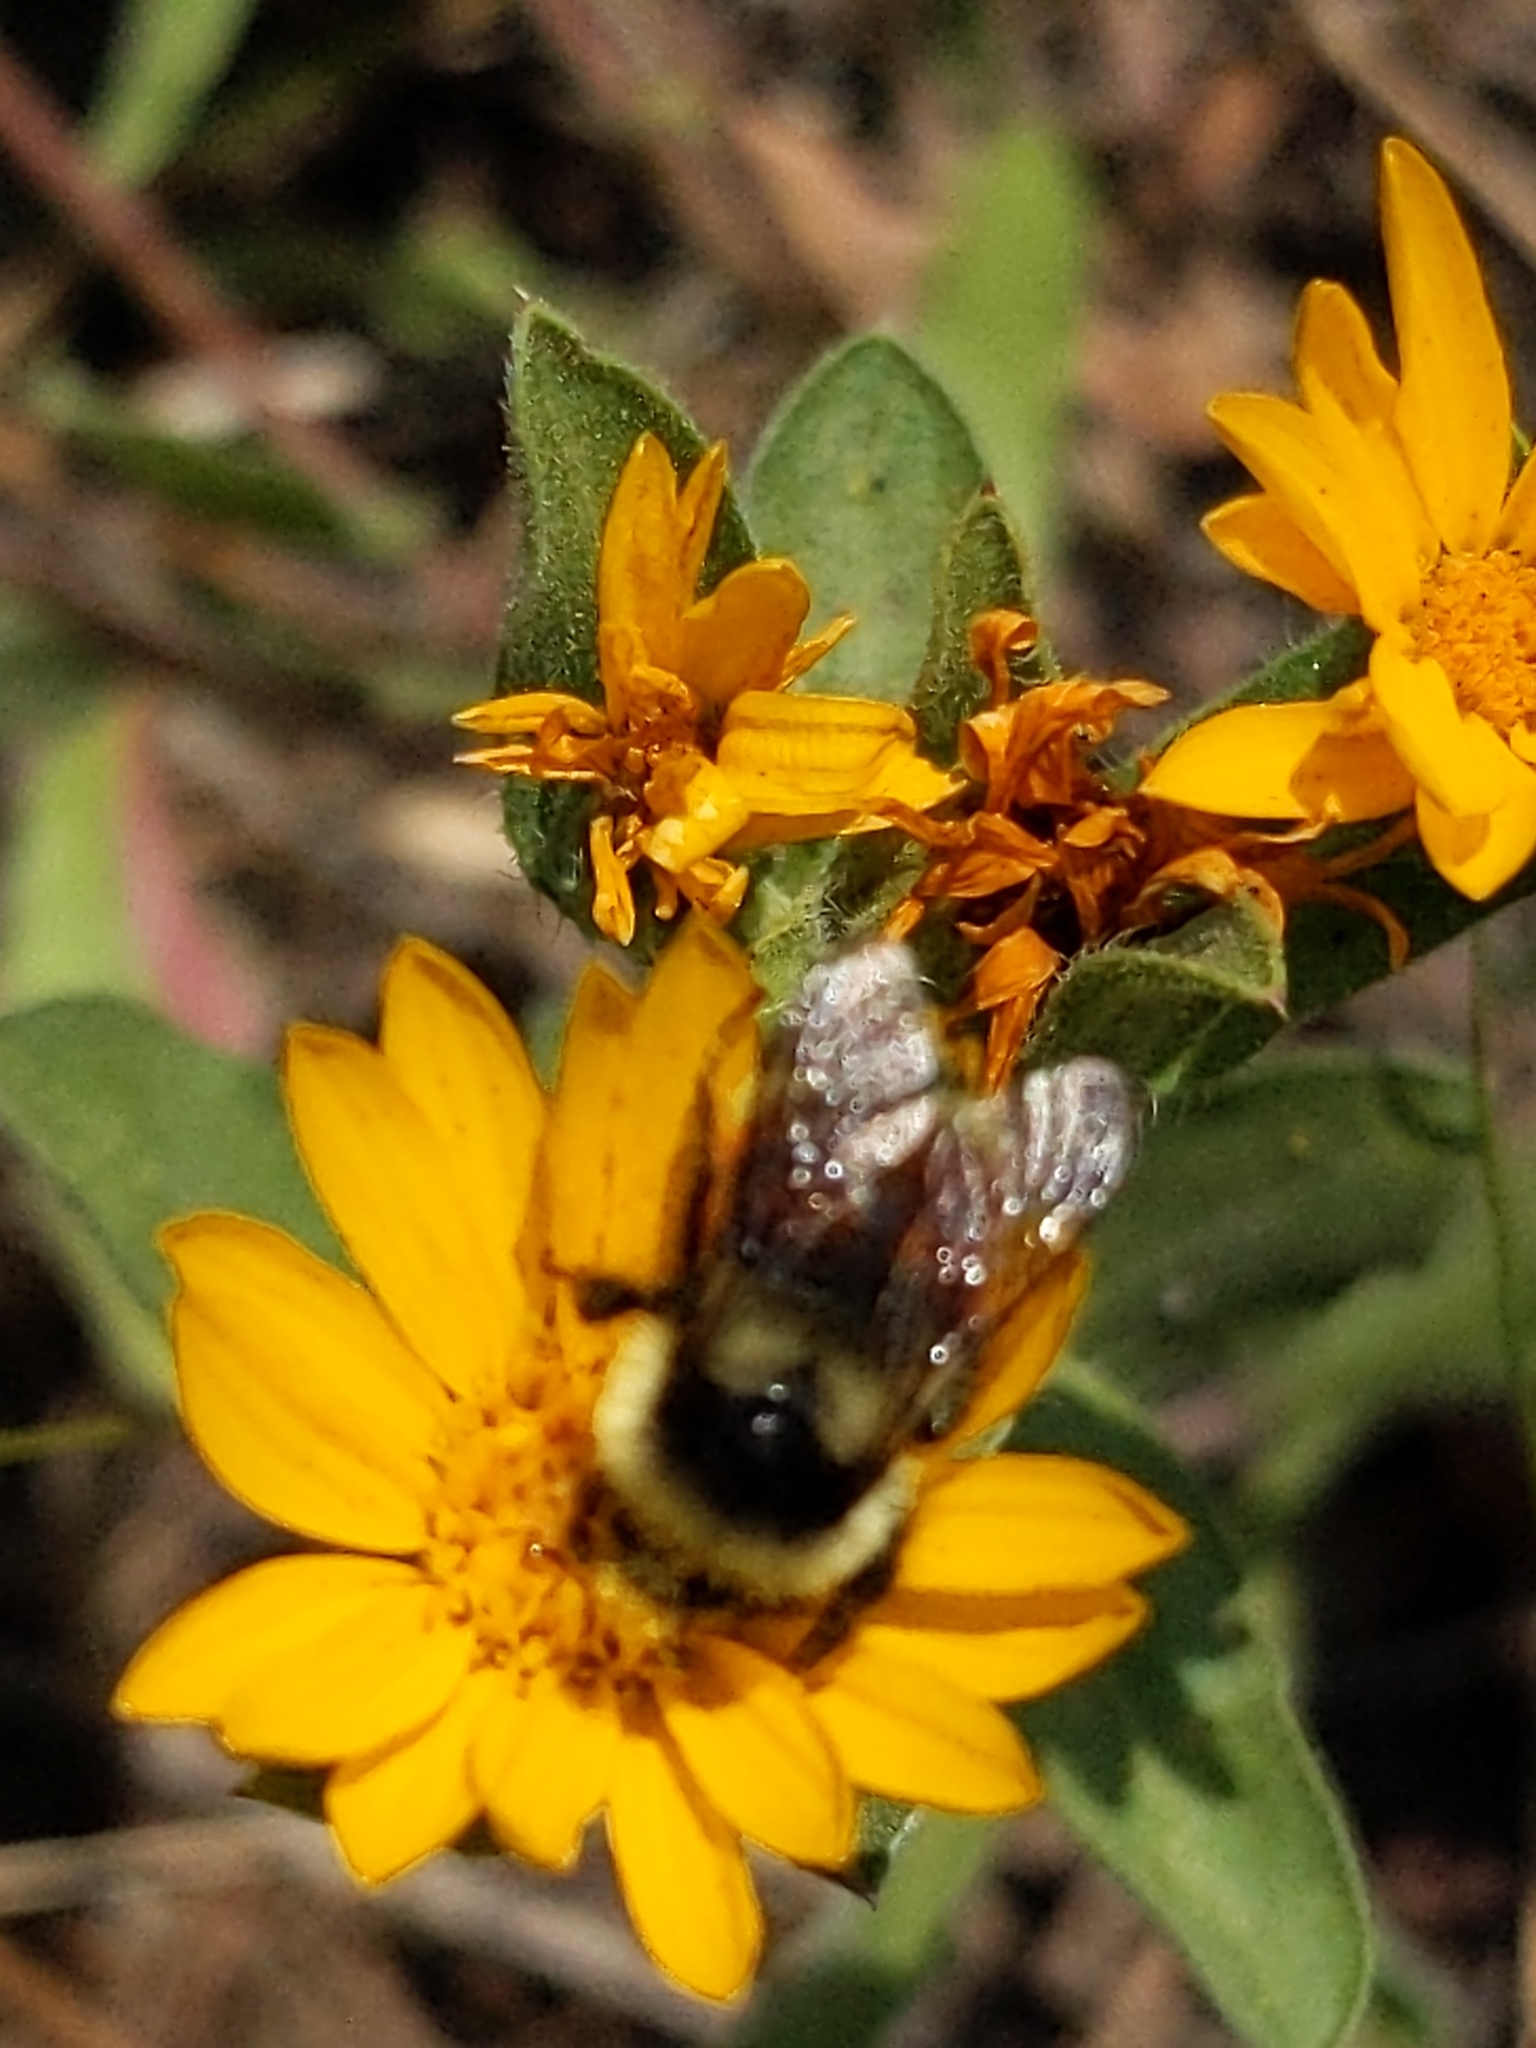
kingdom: Animalia
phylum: Arthropoda
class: Insecta
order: Hymenoptera
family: Apidae
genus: Bombus
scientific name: Bombus bifarius
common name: Two form bumble bee
